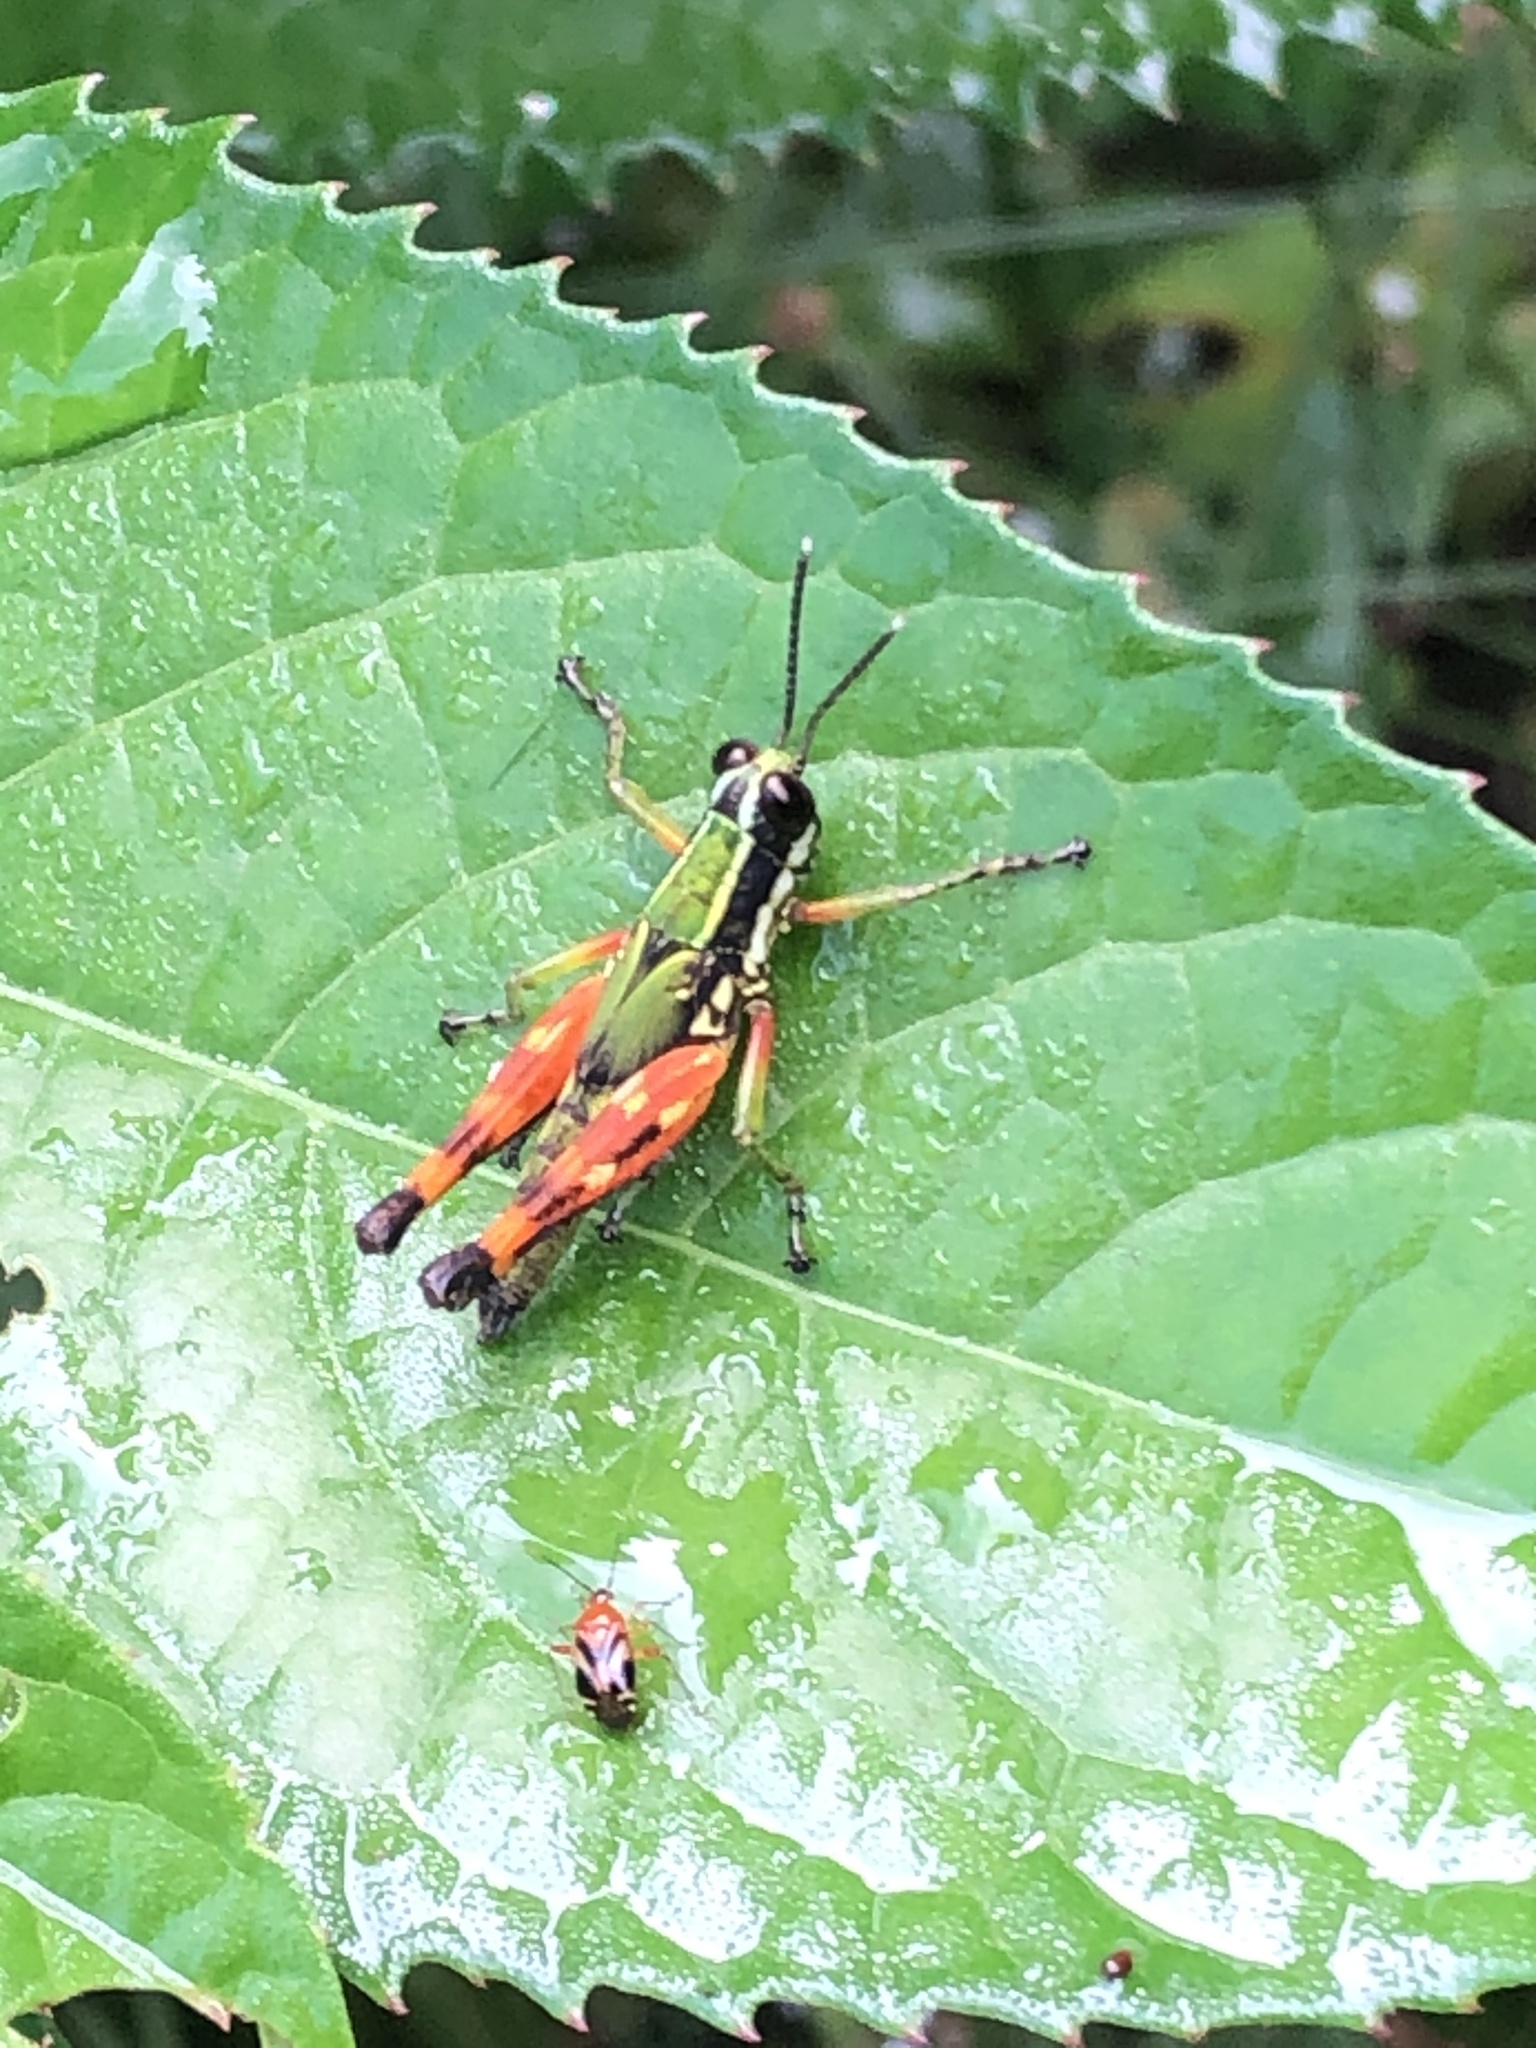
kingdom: Animalia
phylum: Arthropoda
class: Insecta
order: Orthoptera
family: Acrididae
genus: Tetrataenia
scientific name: Tetrataenia surinama
